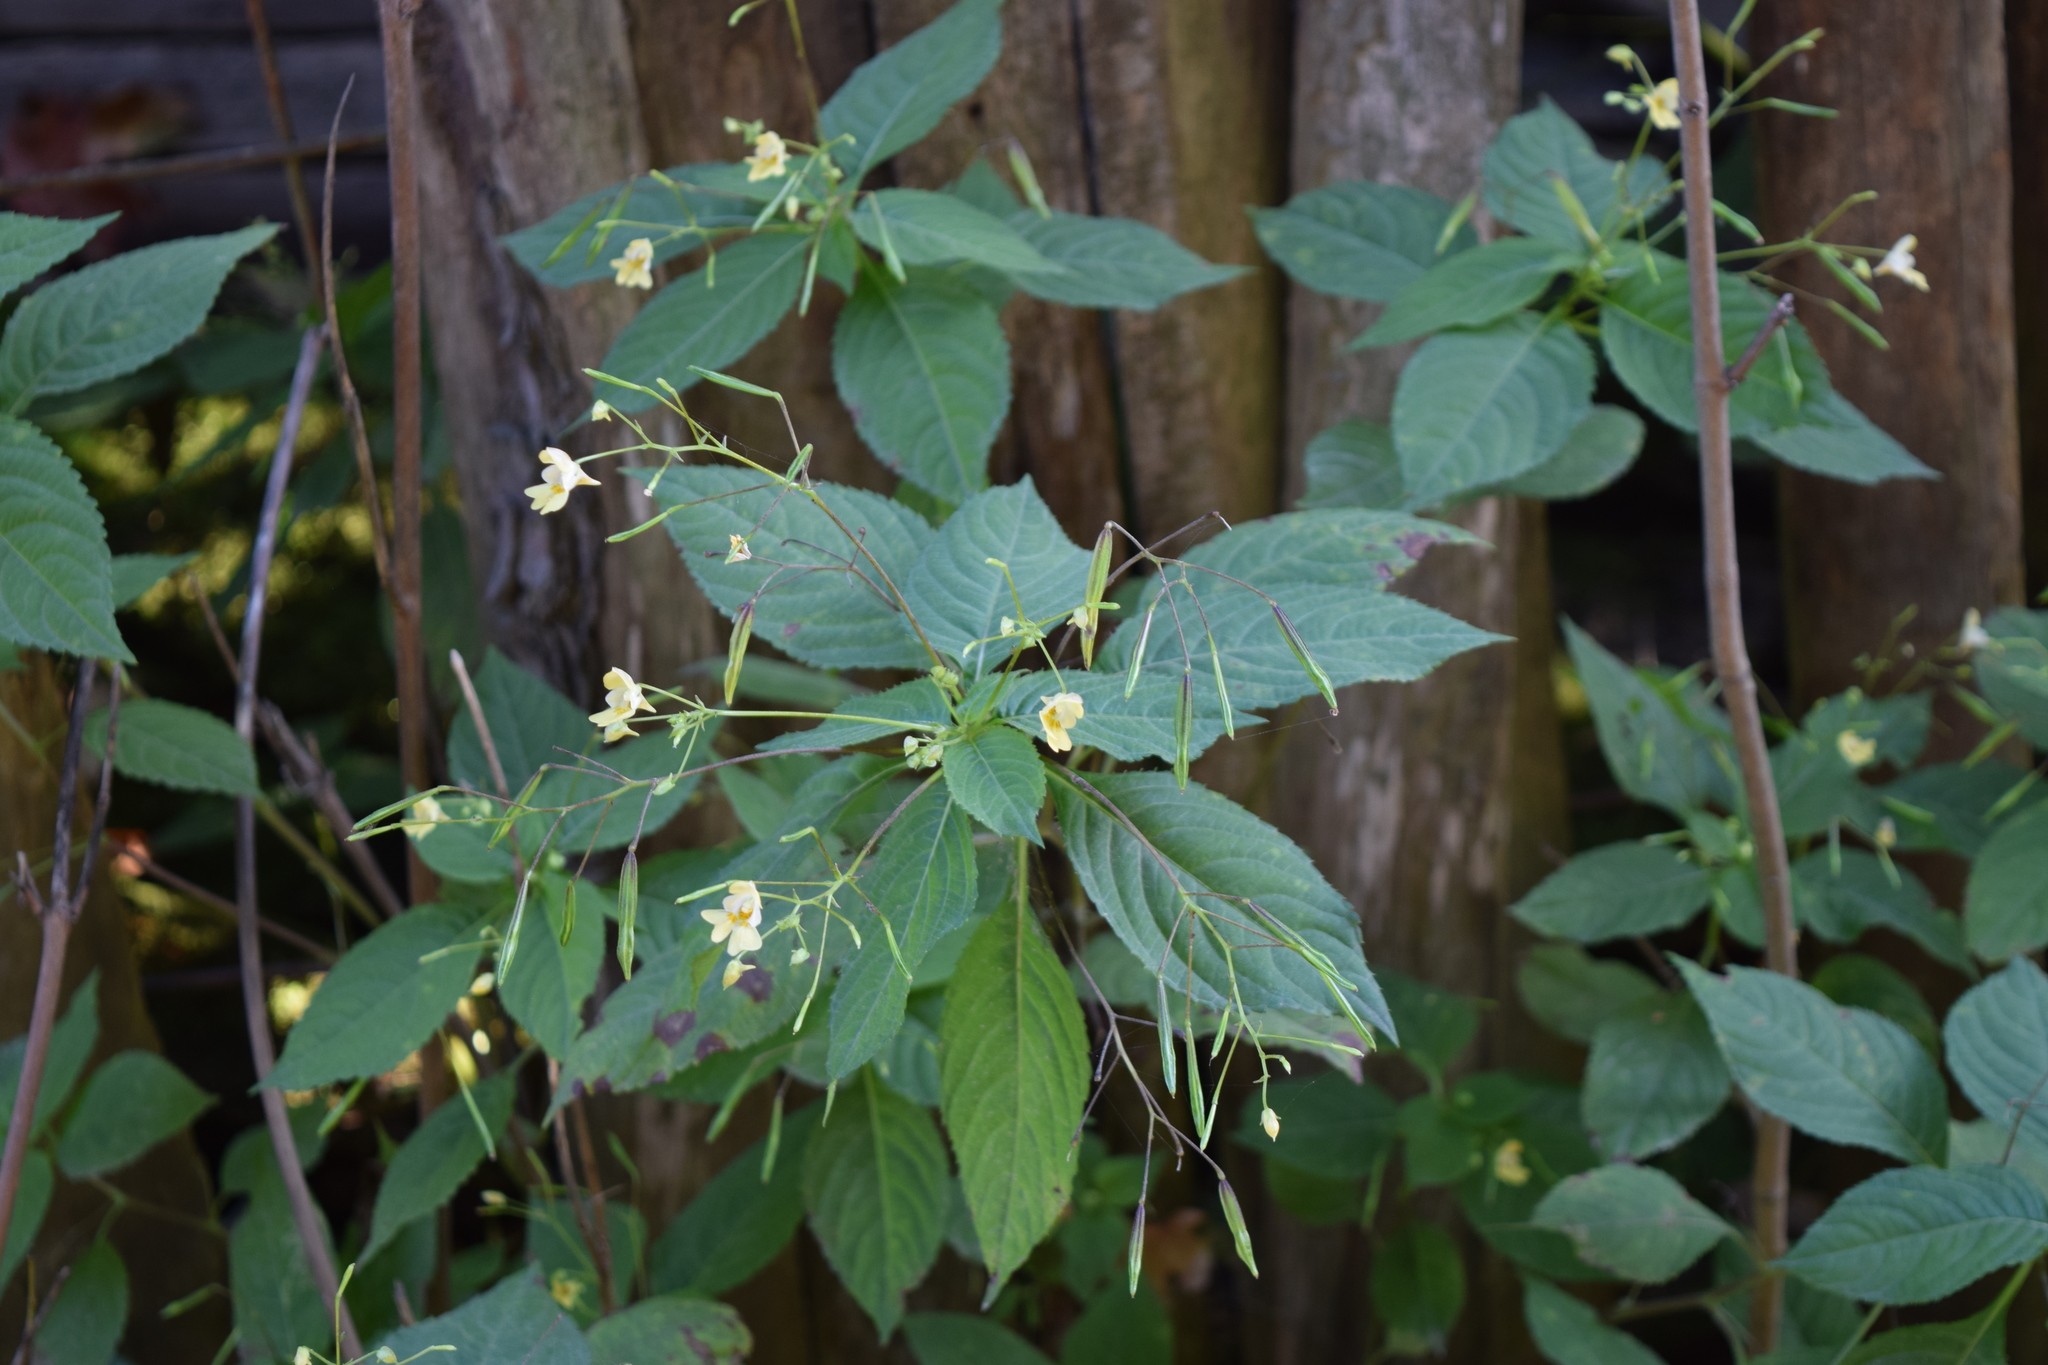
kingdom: Plantae
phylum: Tracheophyta
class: Magnoliopsida
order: Ericales
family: Balsaminaceae
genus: Impatiens
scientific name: Impatiens parviflora
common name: Small balsam
